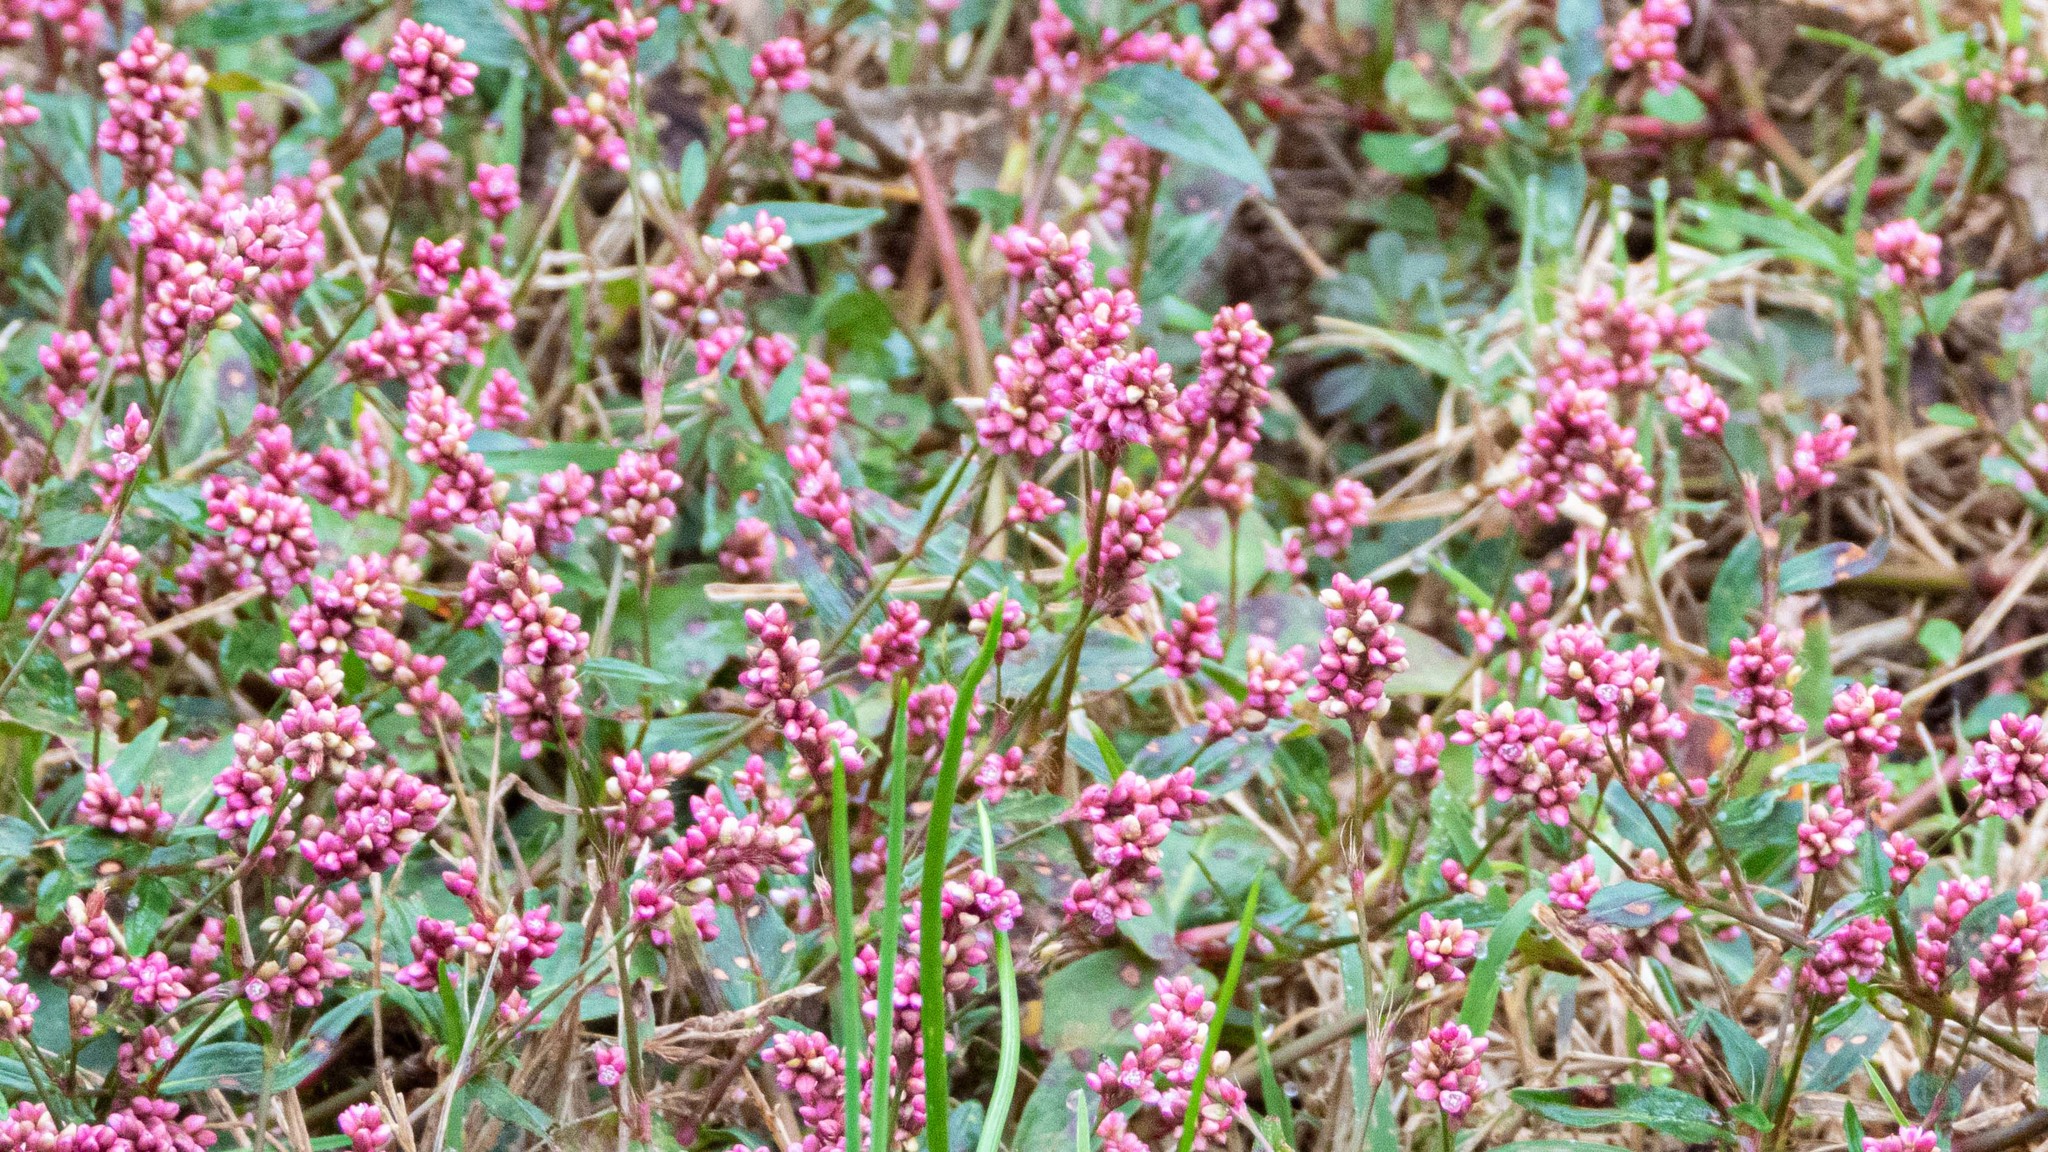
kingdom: Plantae
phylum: Tracheophyta
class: Magnoliopsida
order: Caryophyllales
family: Polygonaceae
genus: Persicaria
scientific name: Persicaria longiseta
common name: Bristly lady's-thumb
